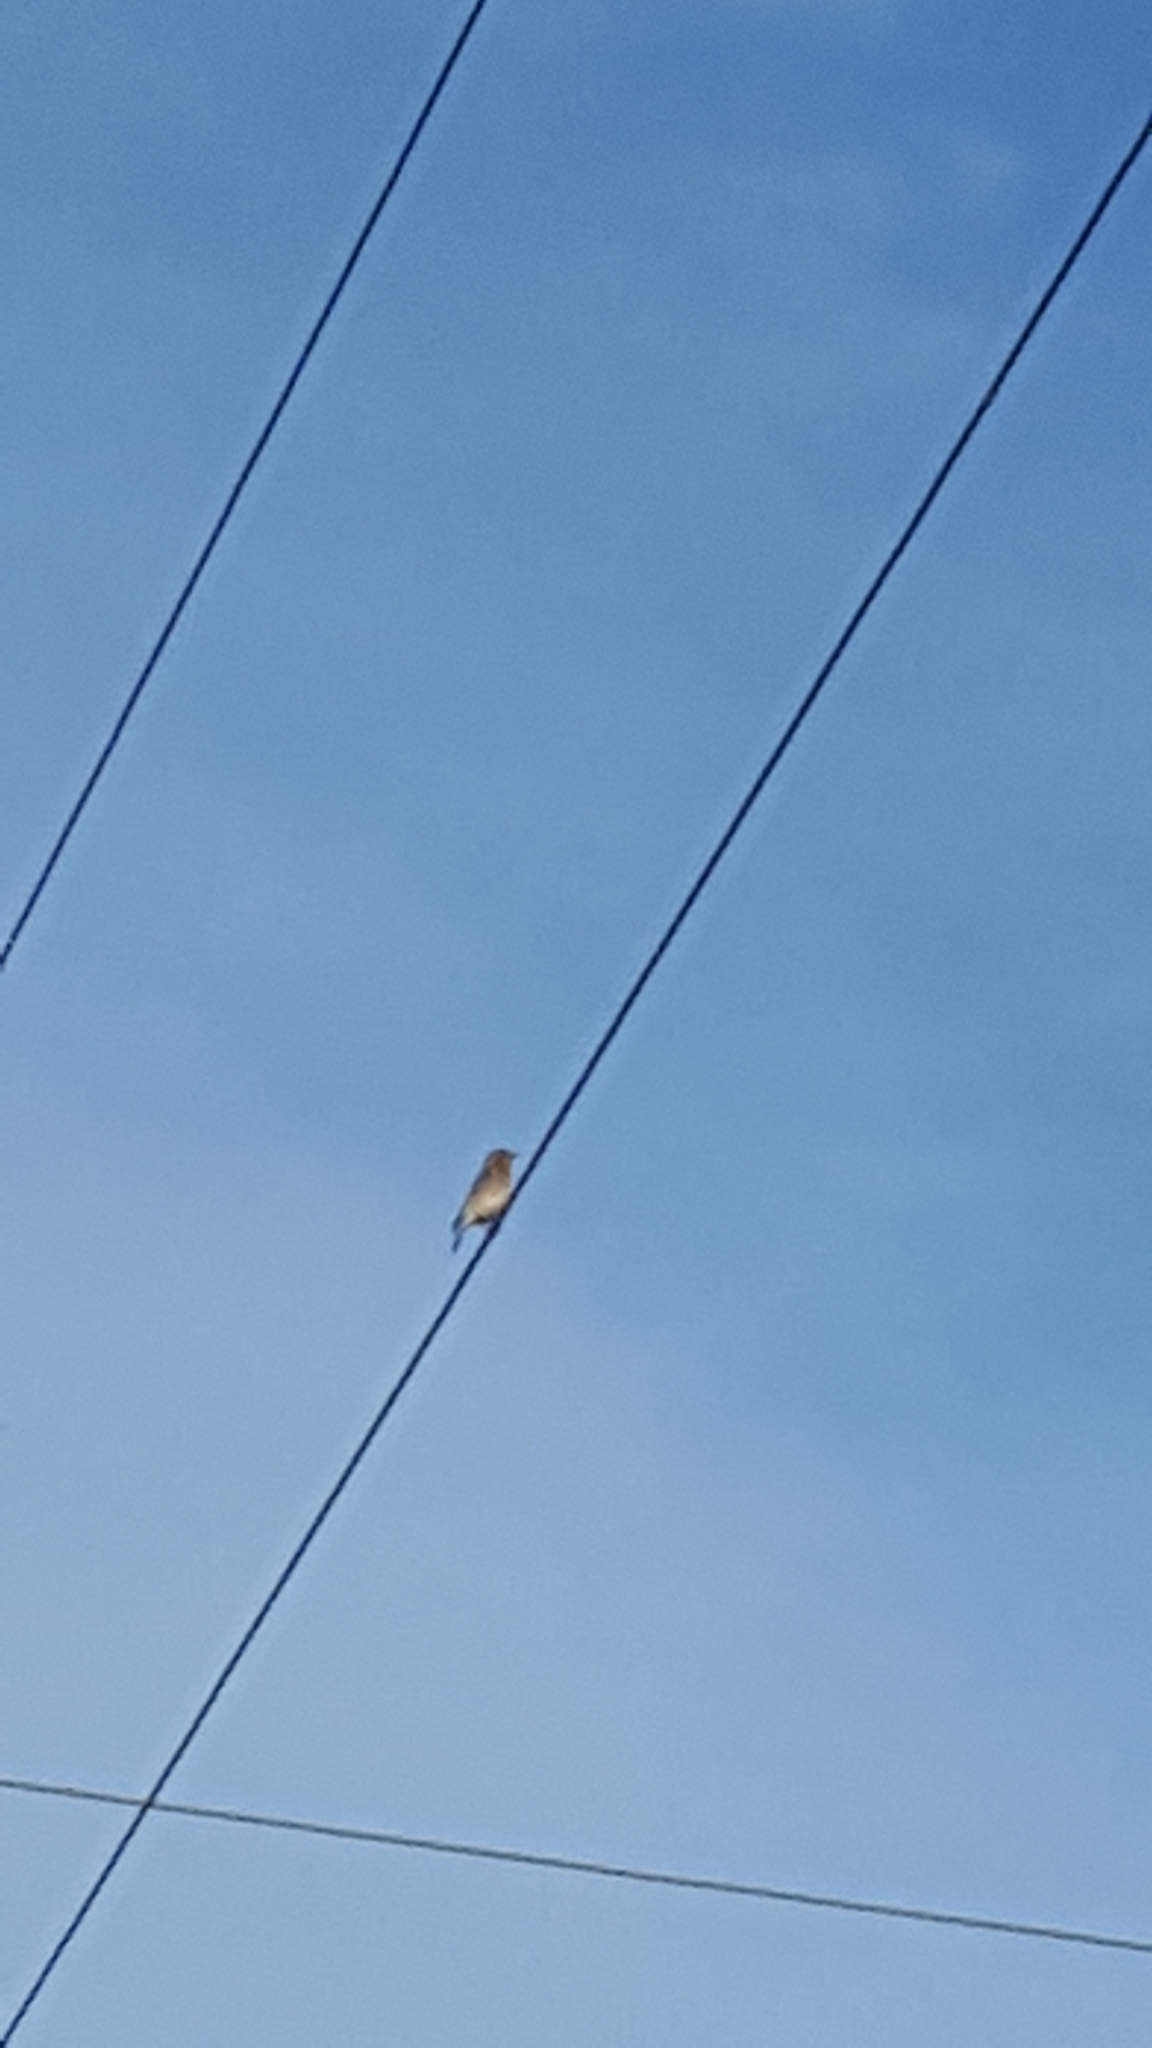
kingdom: Animalia
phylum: Chordata
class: Aves
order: Passeriformes
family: Turdidae
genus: Sialia
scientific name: Sialia sialis
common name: Eastern bluebird
